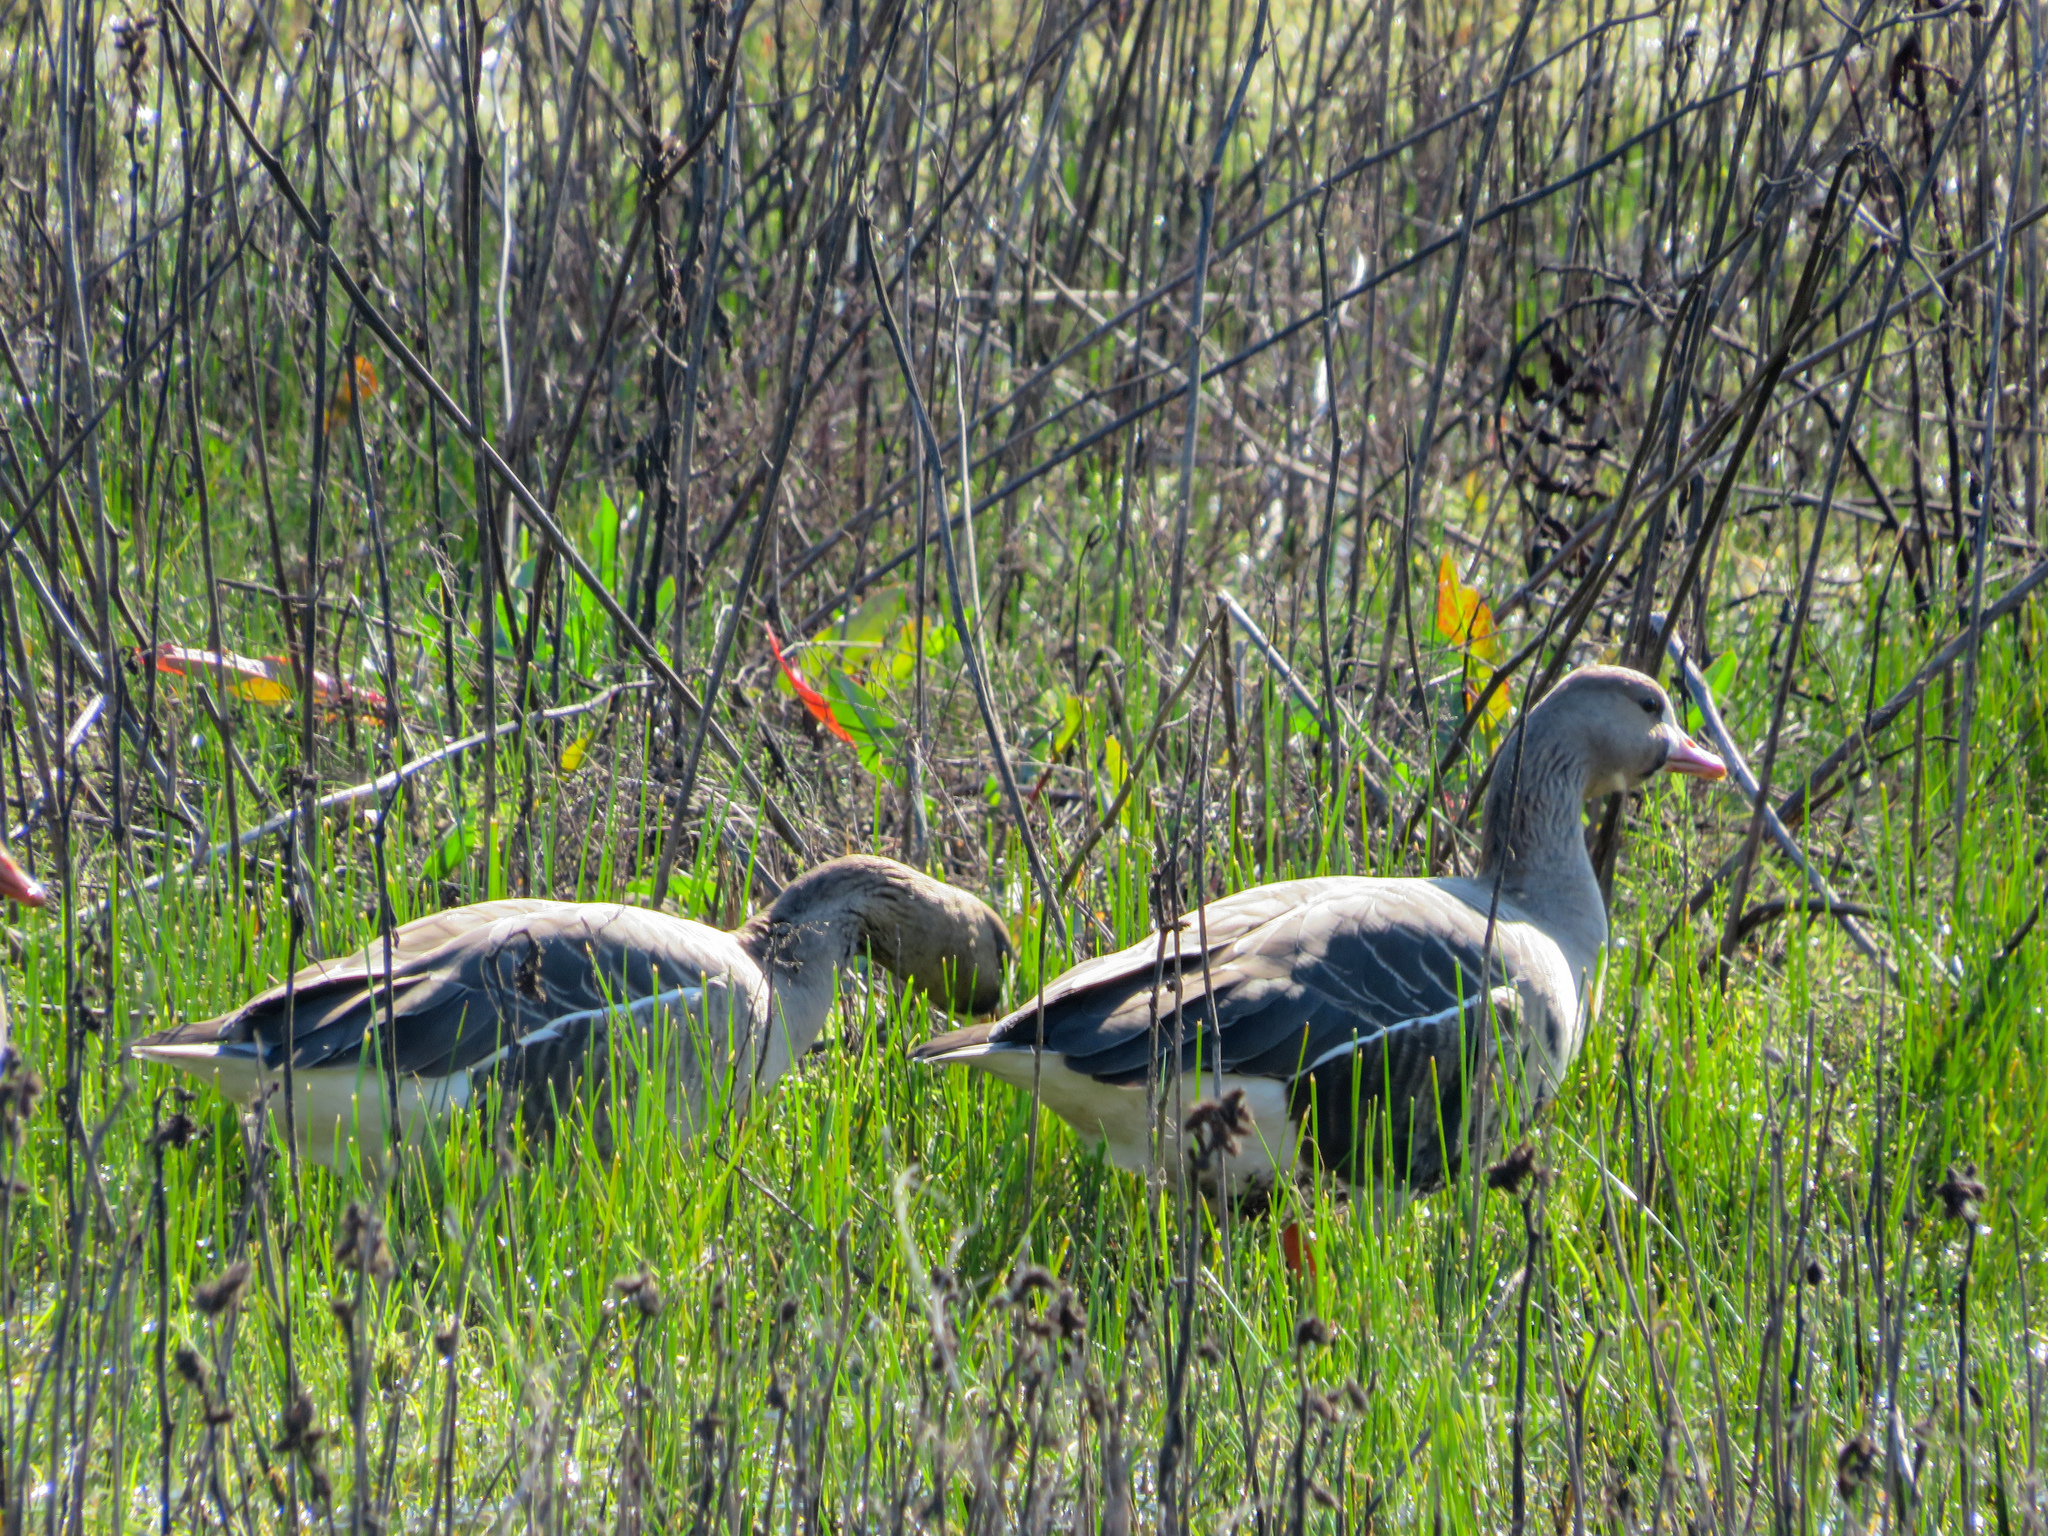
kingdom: Animalia
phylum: Chordata
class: Aves
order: Anseriformes
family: Anatidae
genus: Anser
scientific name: Anser albifrons
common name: Greater white-fronted goose
